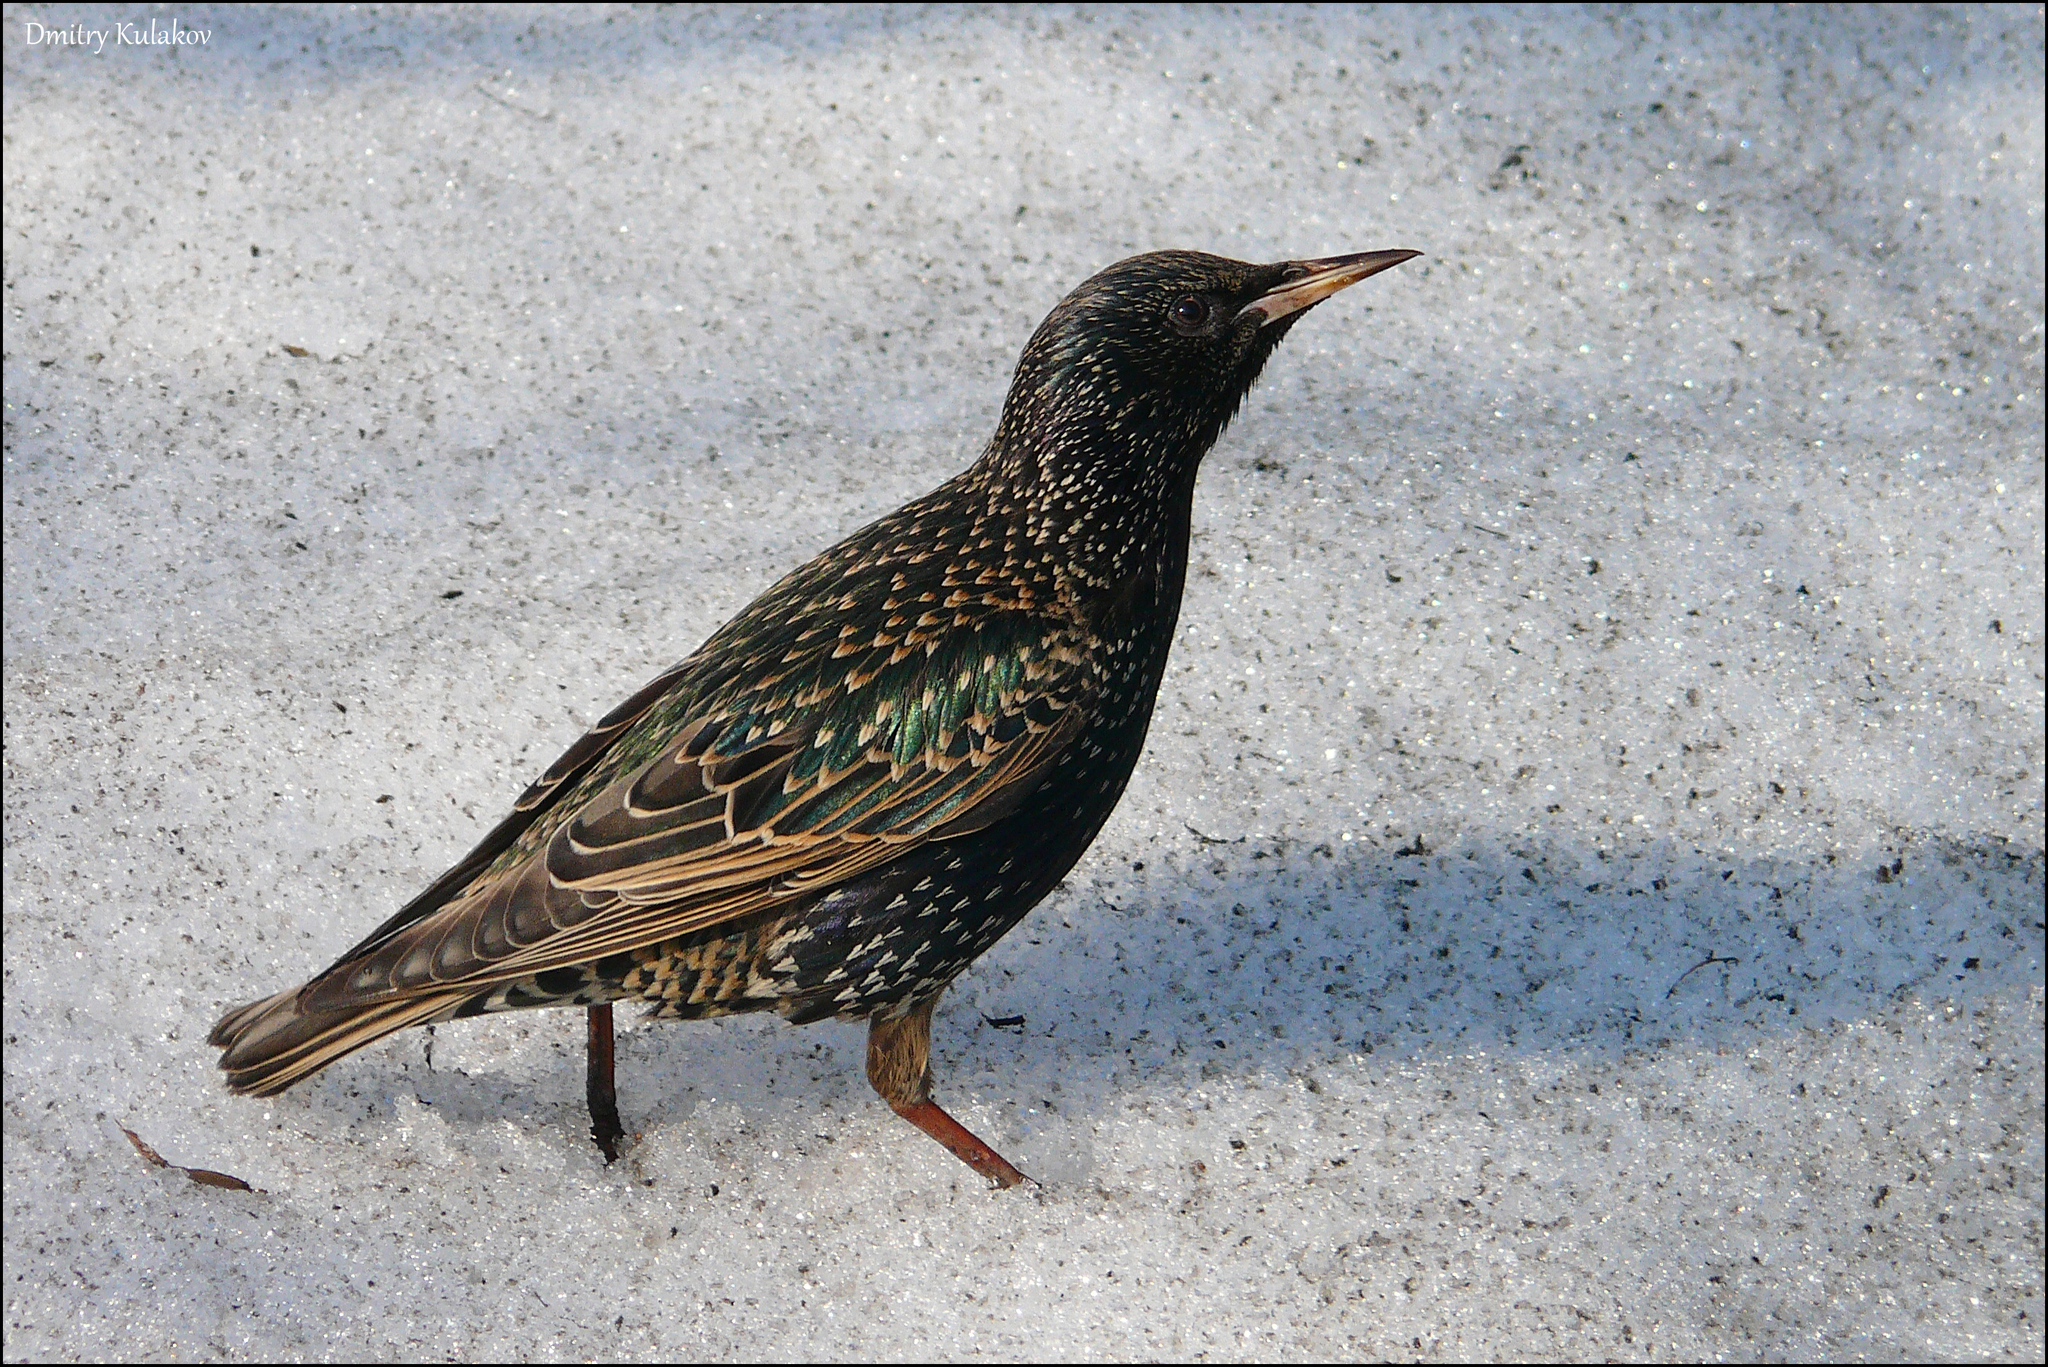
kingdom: Animalia
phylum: Chordata
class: Aves
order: Passeriformes
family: Sturnidae
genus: Sturnus
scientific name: Sturnus vulgaris
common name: Common starling
